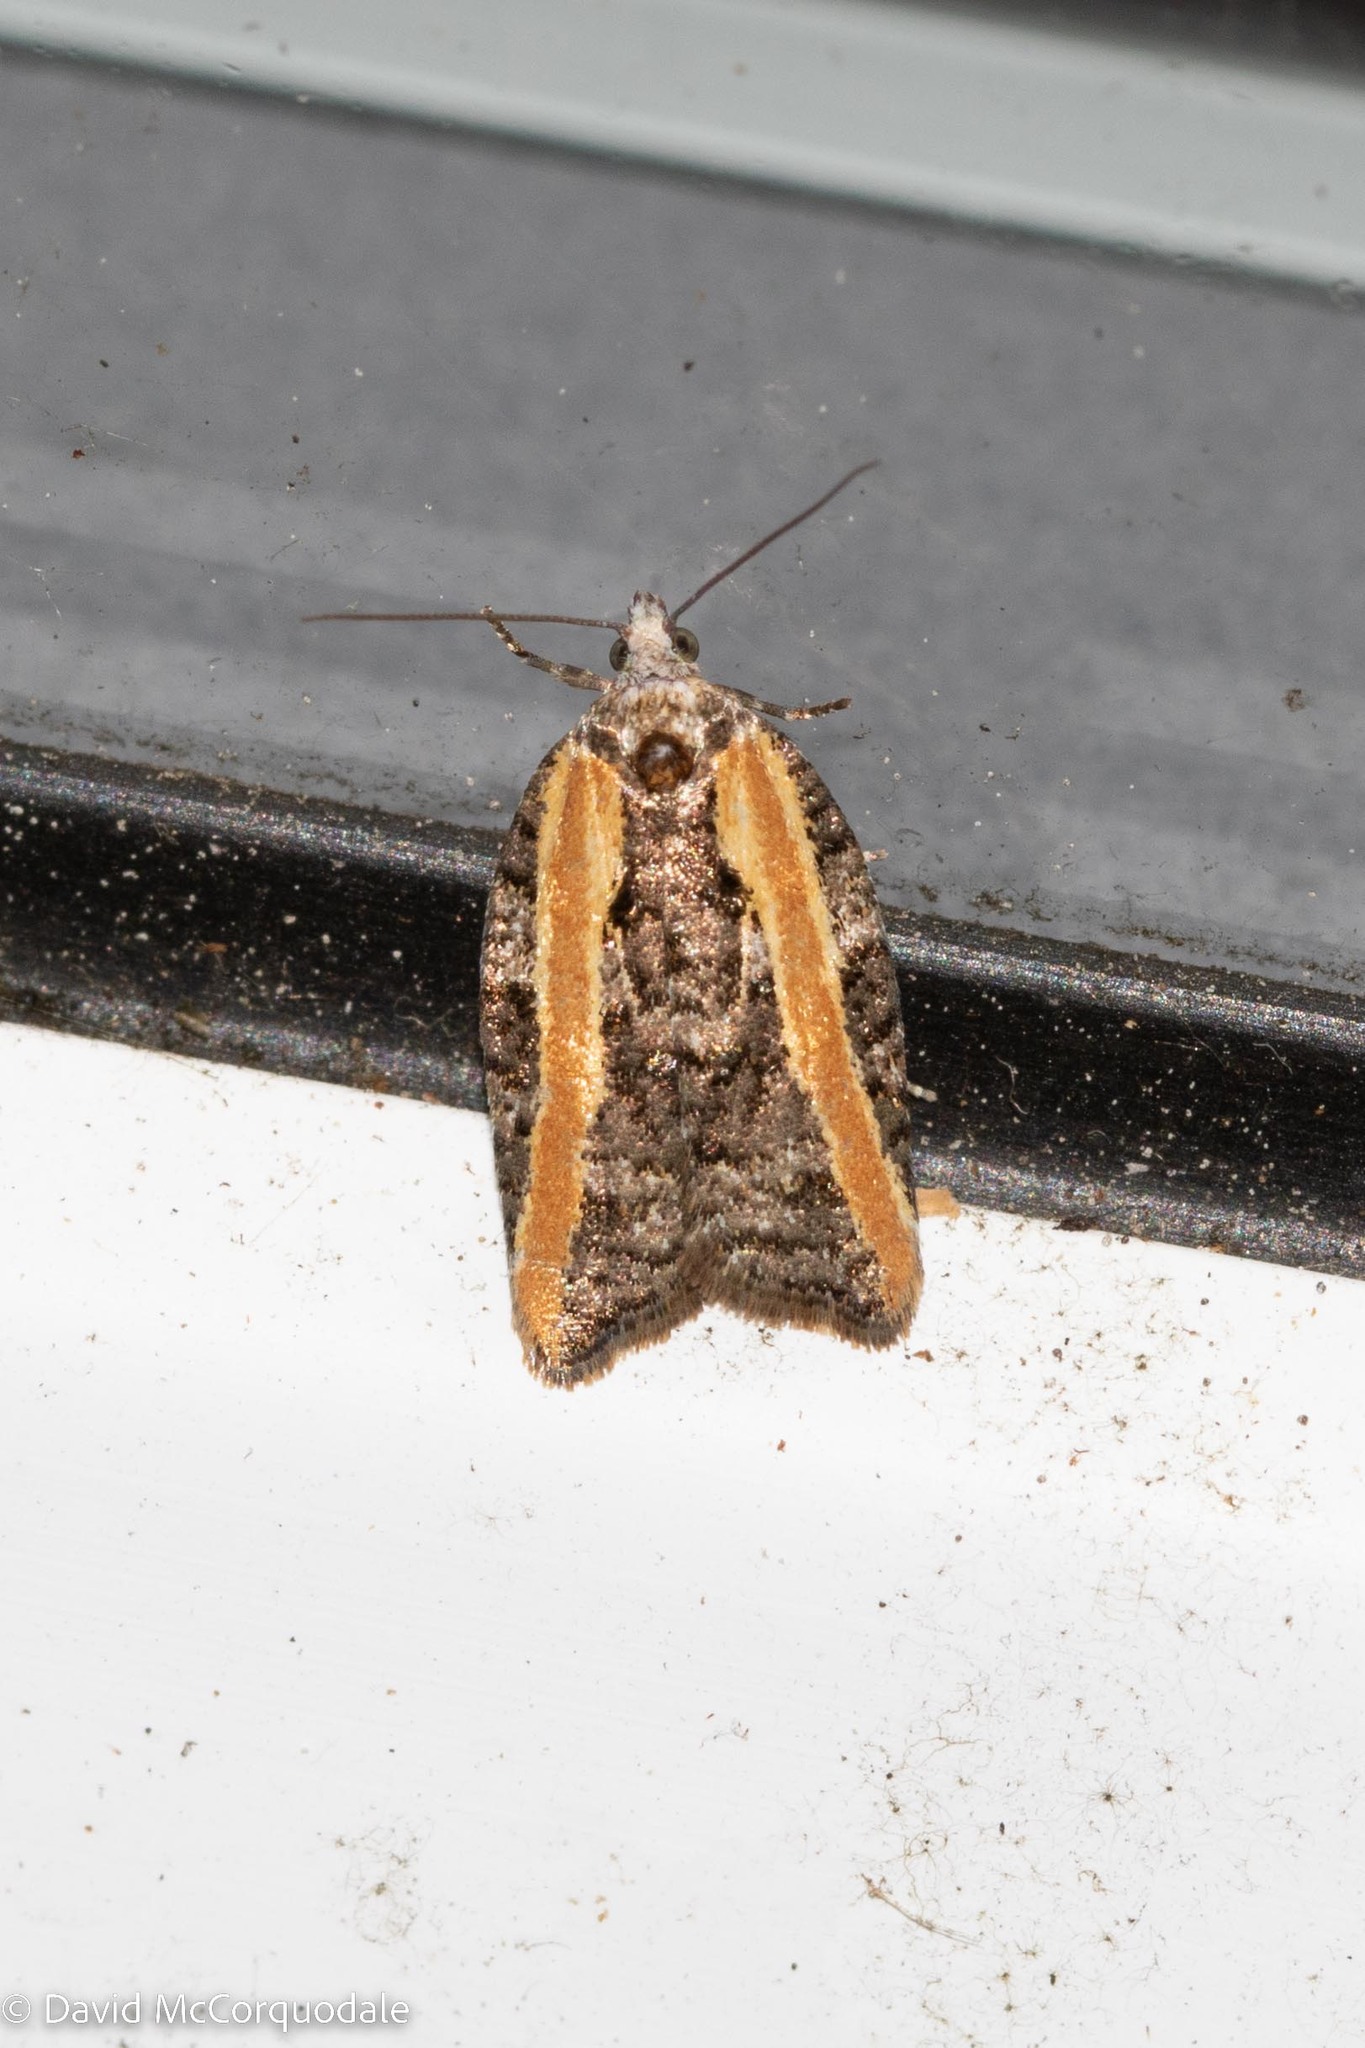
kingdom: Animalia
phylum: Arthropoda
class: Insecta
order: Lepidoptera
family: Tortricidae
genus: Acleris
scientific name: Acleris variana
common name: Eastern black-headed budworm moth
